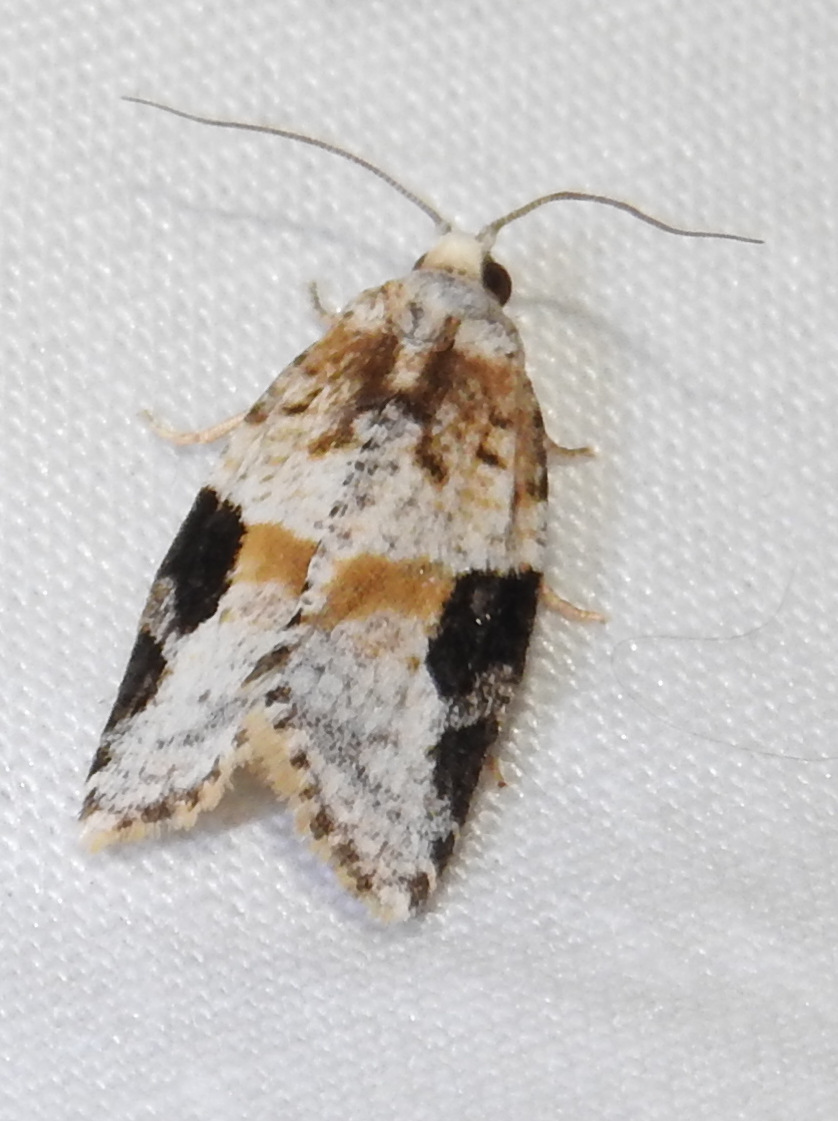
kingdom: Animalia
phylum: Arthropoda
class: Insecta
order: Lepidoptera
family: Tortricidae
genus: Argyrotaenia
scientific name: Argyrotaenia mariana
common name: Gray-banded leafroller moth
